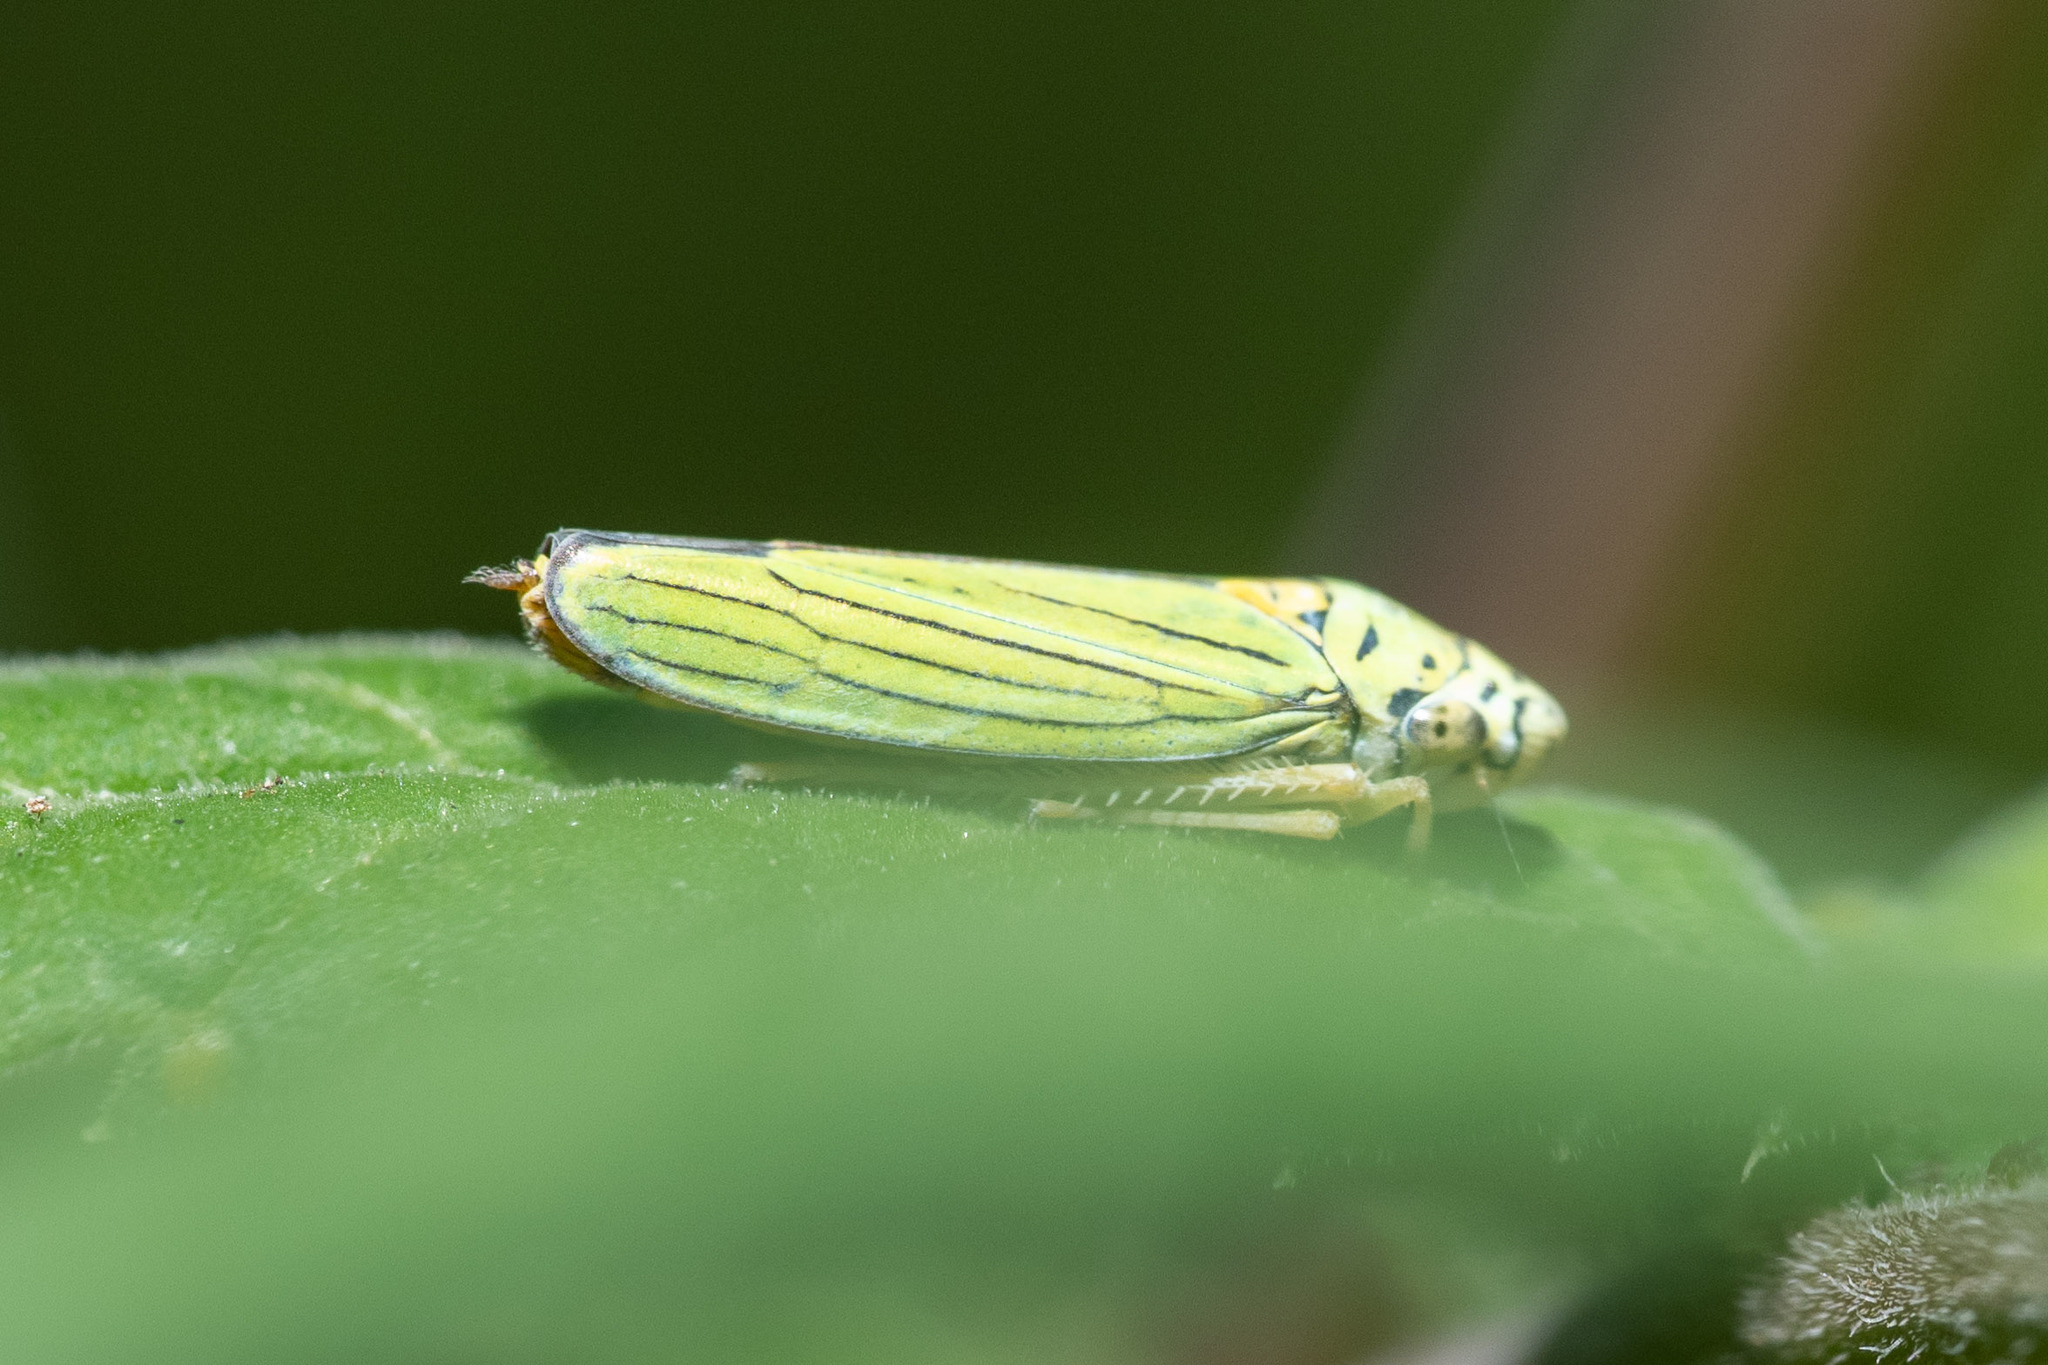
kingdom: Animalia
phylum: Arthropoda
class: Insecta
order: Hemiptera
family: Cicadellidae
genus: Graphocephala
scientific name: Graphocephala atropunctata
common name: Blue-green sharpshooter
